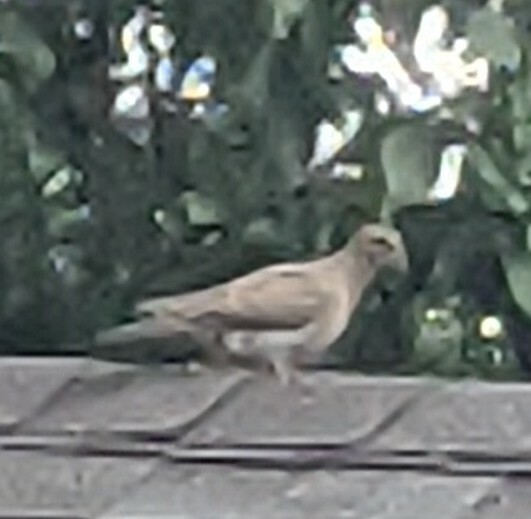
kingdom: Animalia
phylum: Chordata
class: Aves
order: Columbiformes
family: Columbidae
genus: Zenaida
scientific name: Zenaida macroura
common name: Mourning dove
